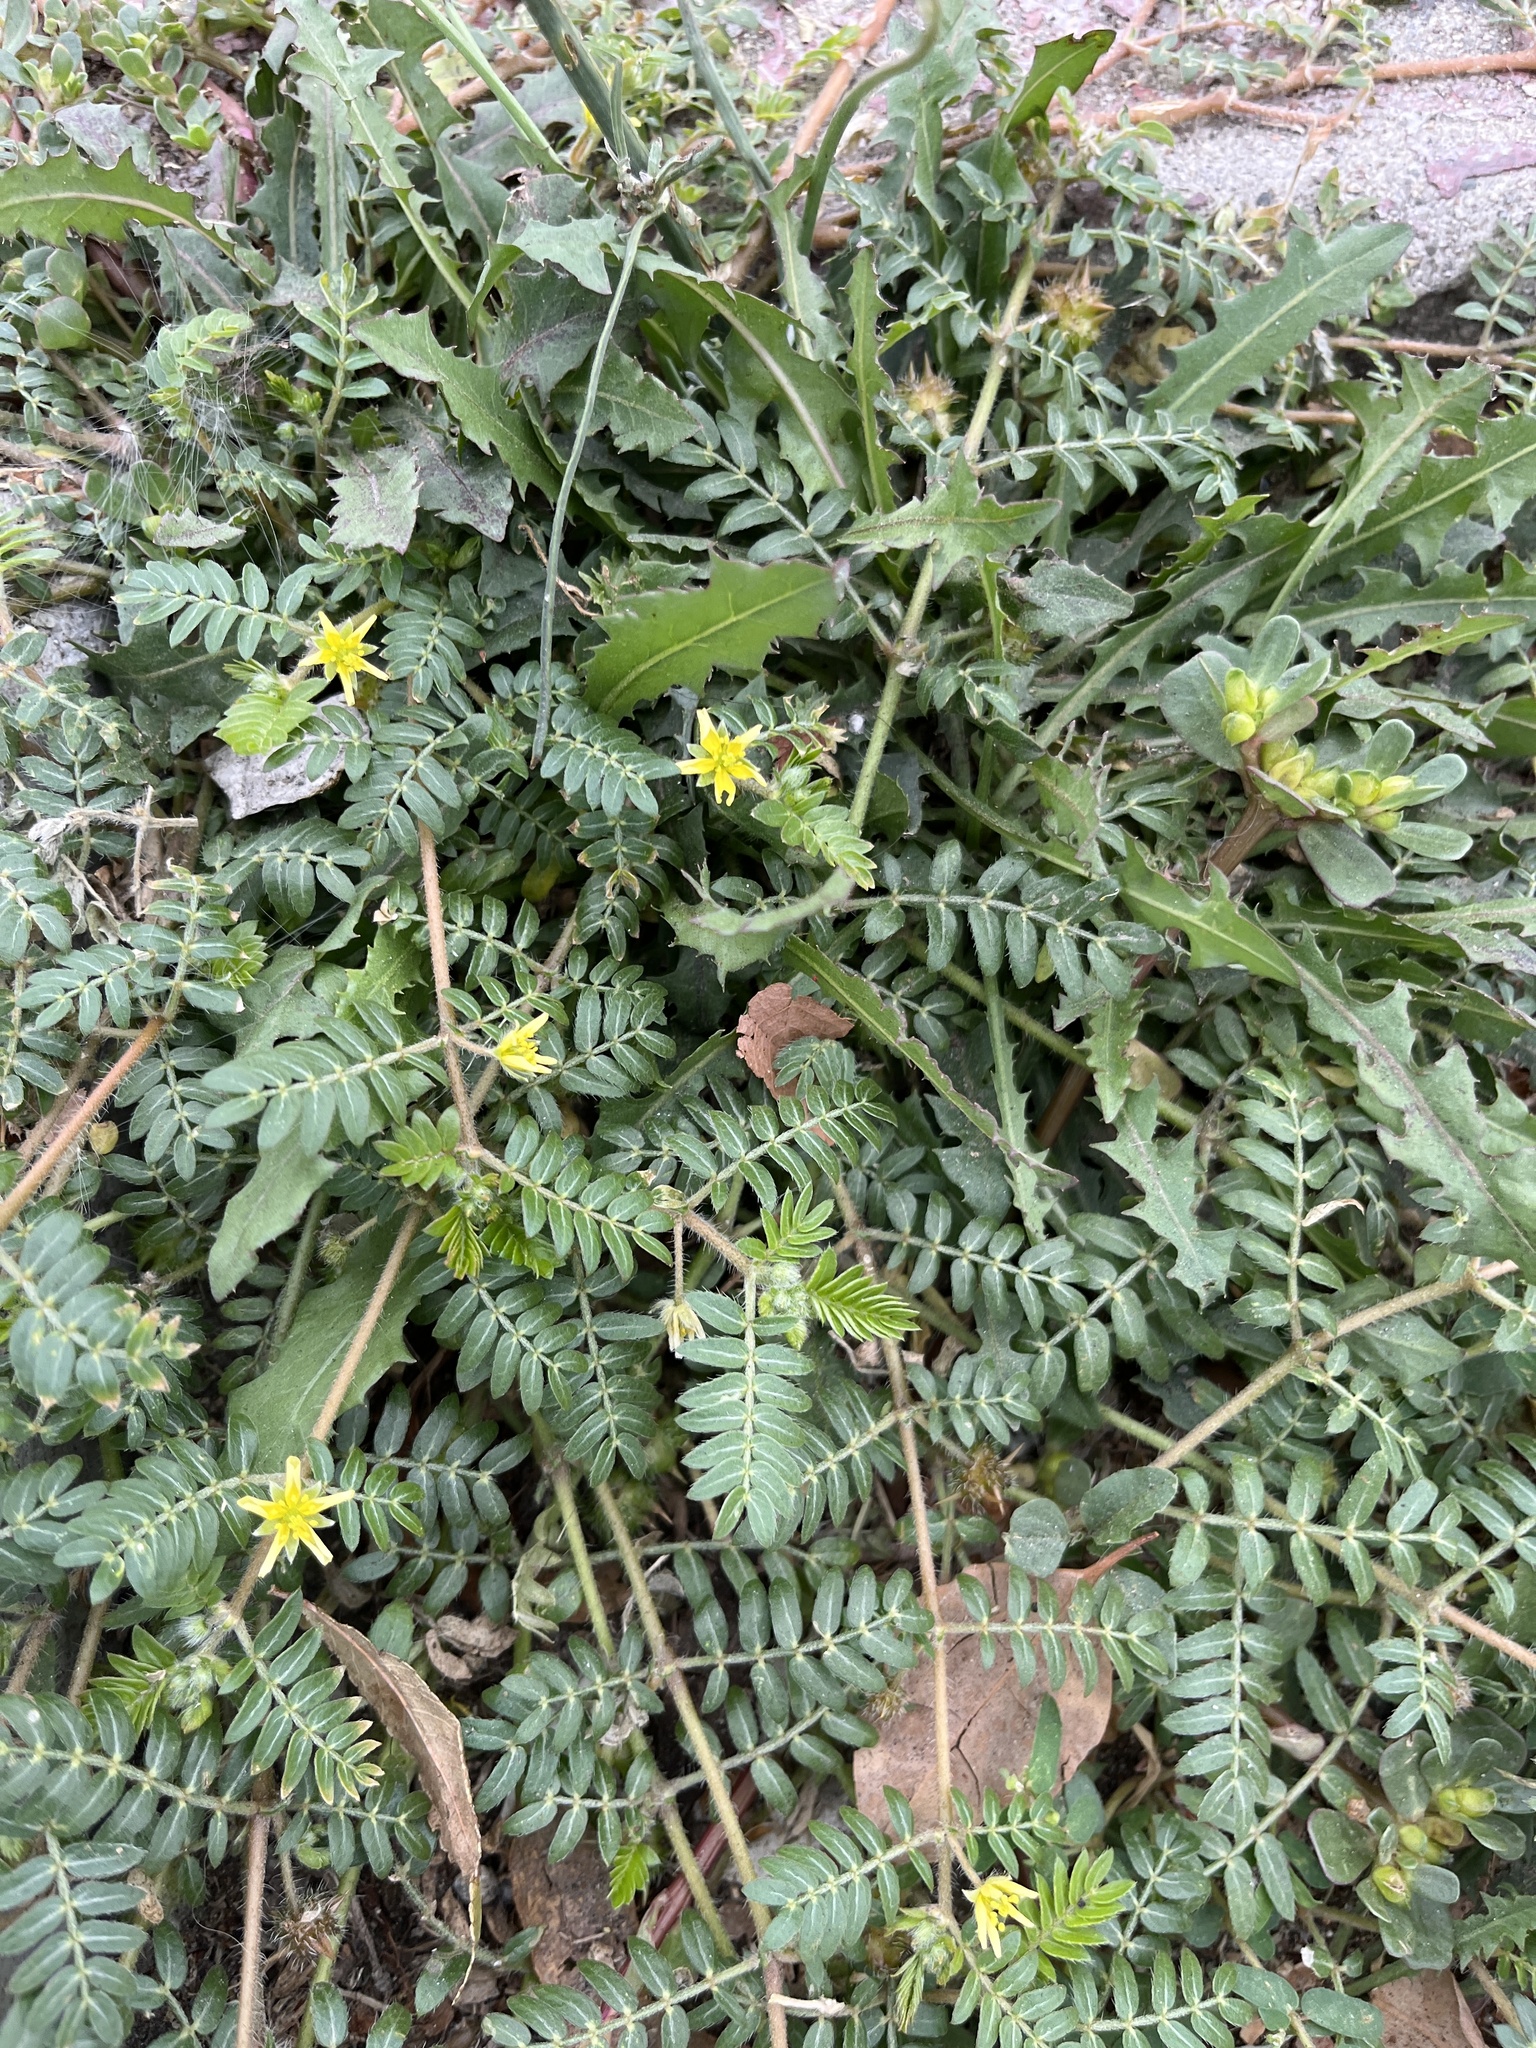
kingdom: Plantae
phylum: Tracheophyta
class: Magnoliopsida
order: Zygophyllales
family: Zygophyllaceae
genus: Tribulus
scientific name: Tribulus terrestris
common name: Puncturevine
